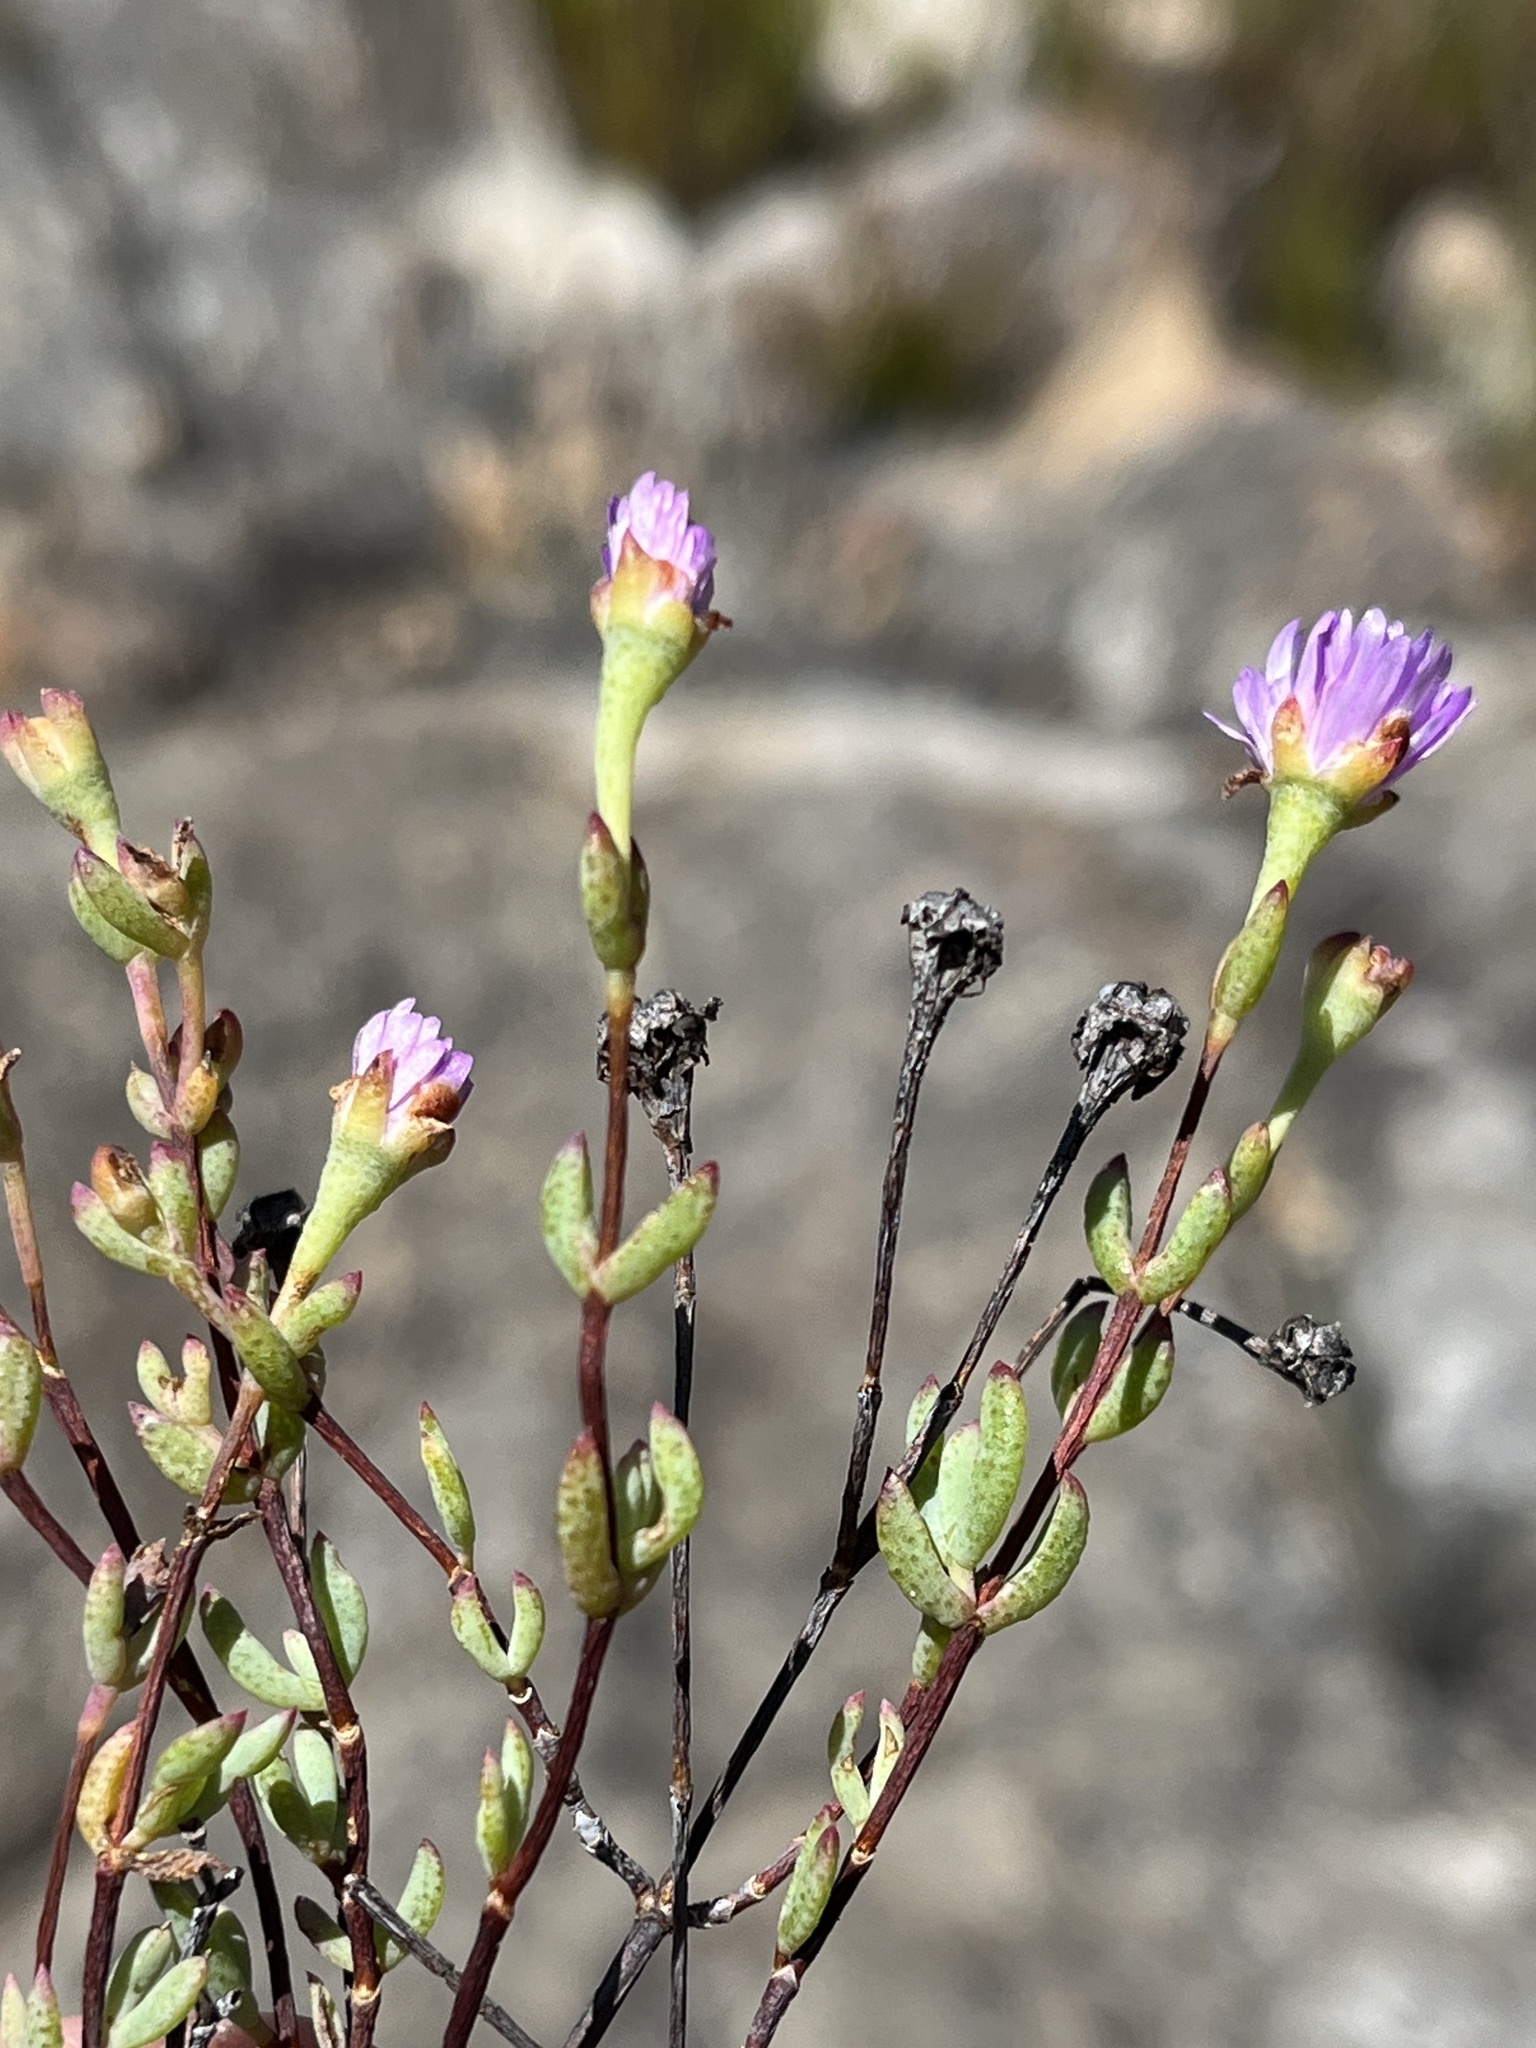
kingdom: Plantae
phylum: Tracheophyta
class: Magnoliopsida
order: Caryophyllales
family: Aizoaceae
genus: Lampranthus
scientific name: Lampranthus falcatus
